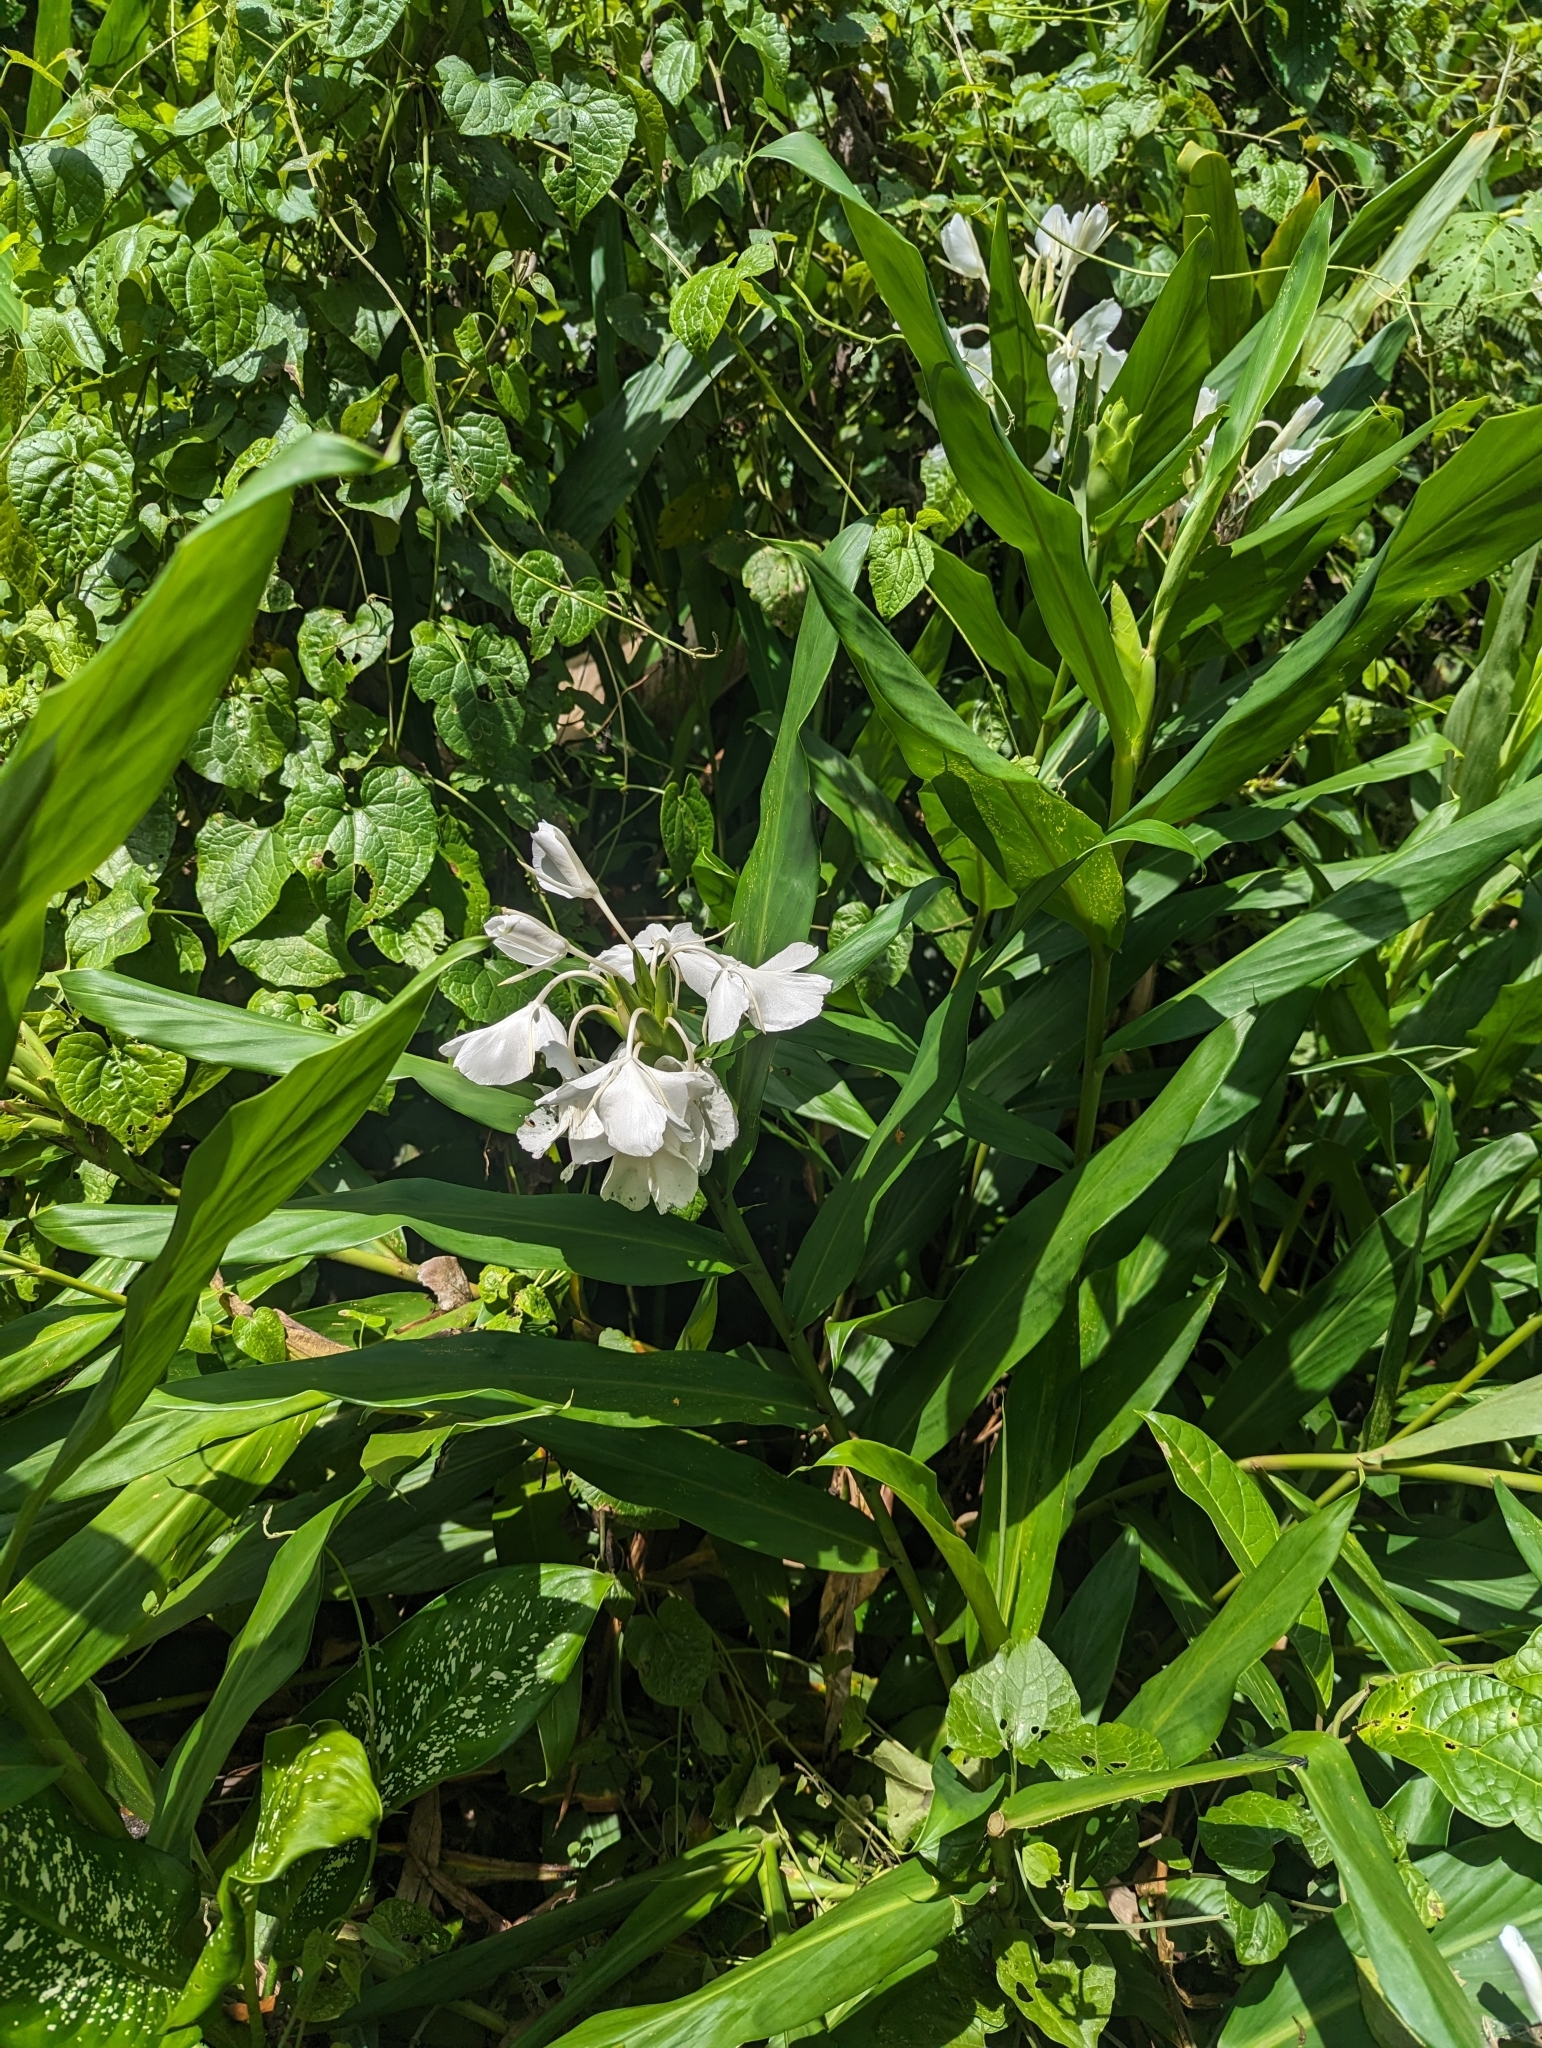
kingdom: Plantae
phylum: Tracheophyta
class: Liliopsida
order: Zingiberales
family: Zingiberaceae
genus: Hedychium
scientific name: Hedychium coronarium
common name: White garland-lily
